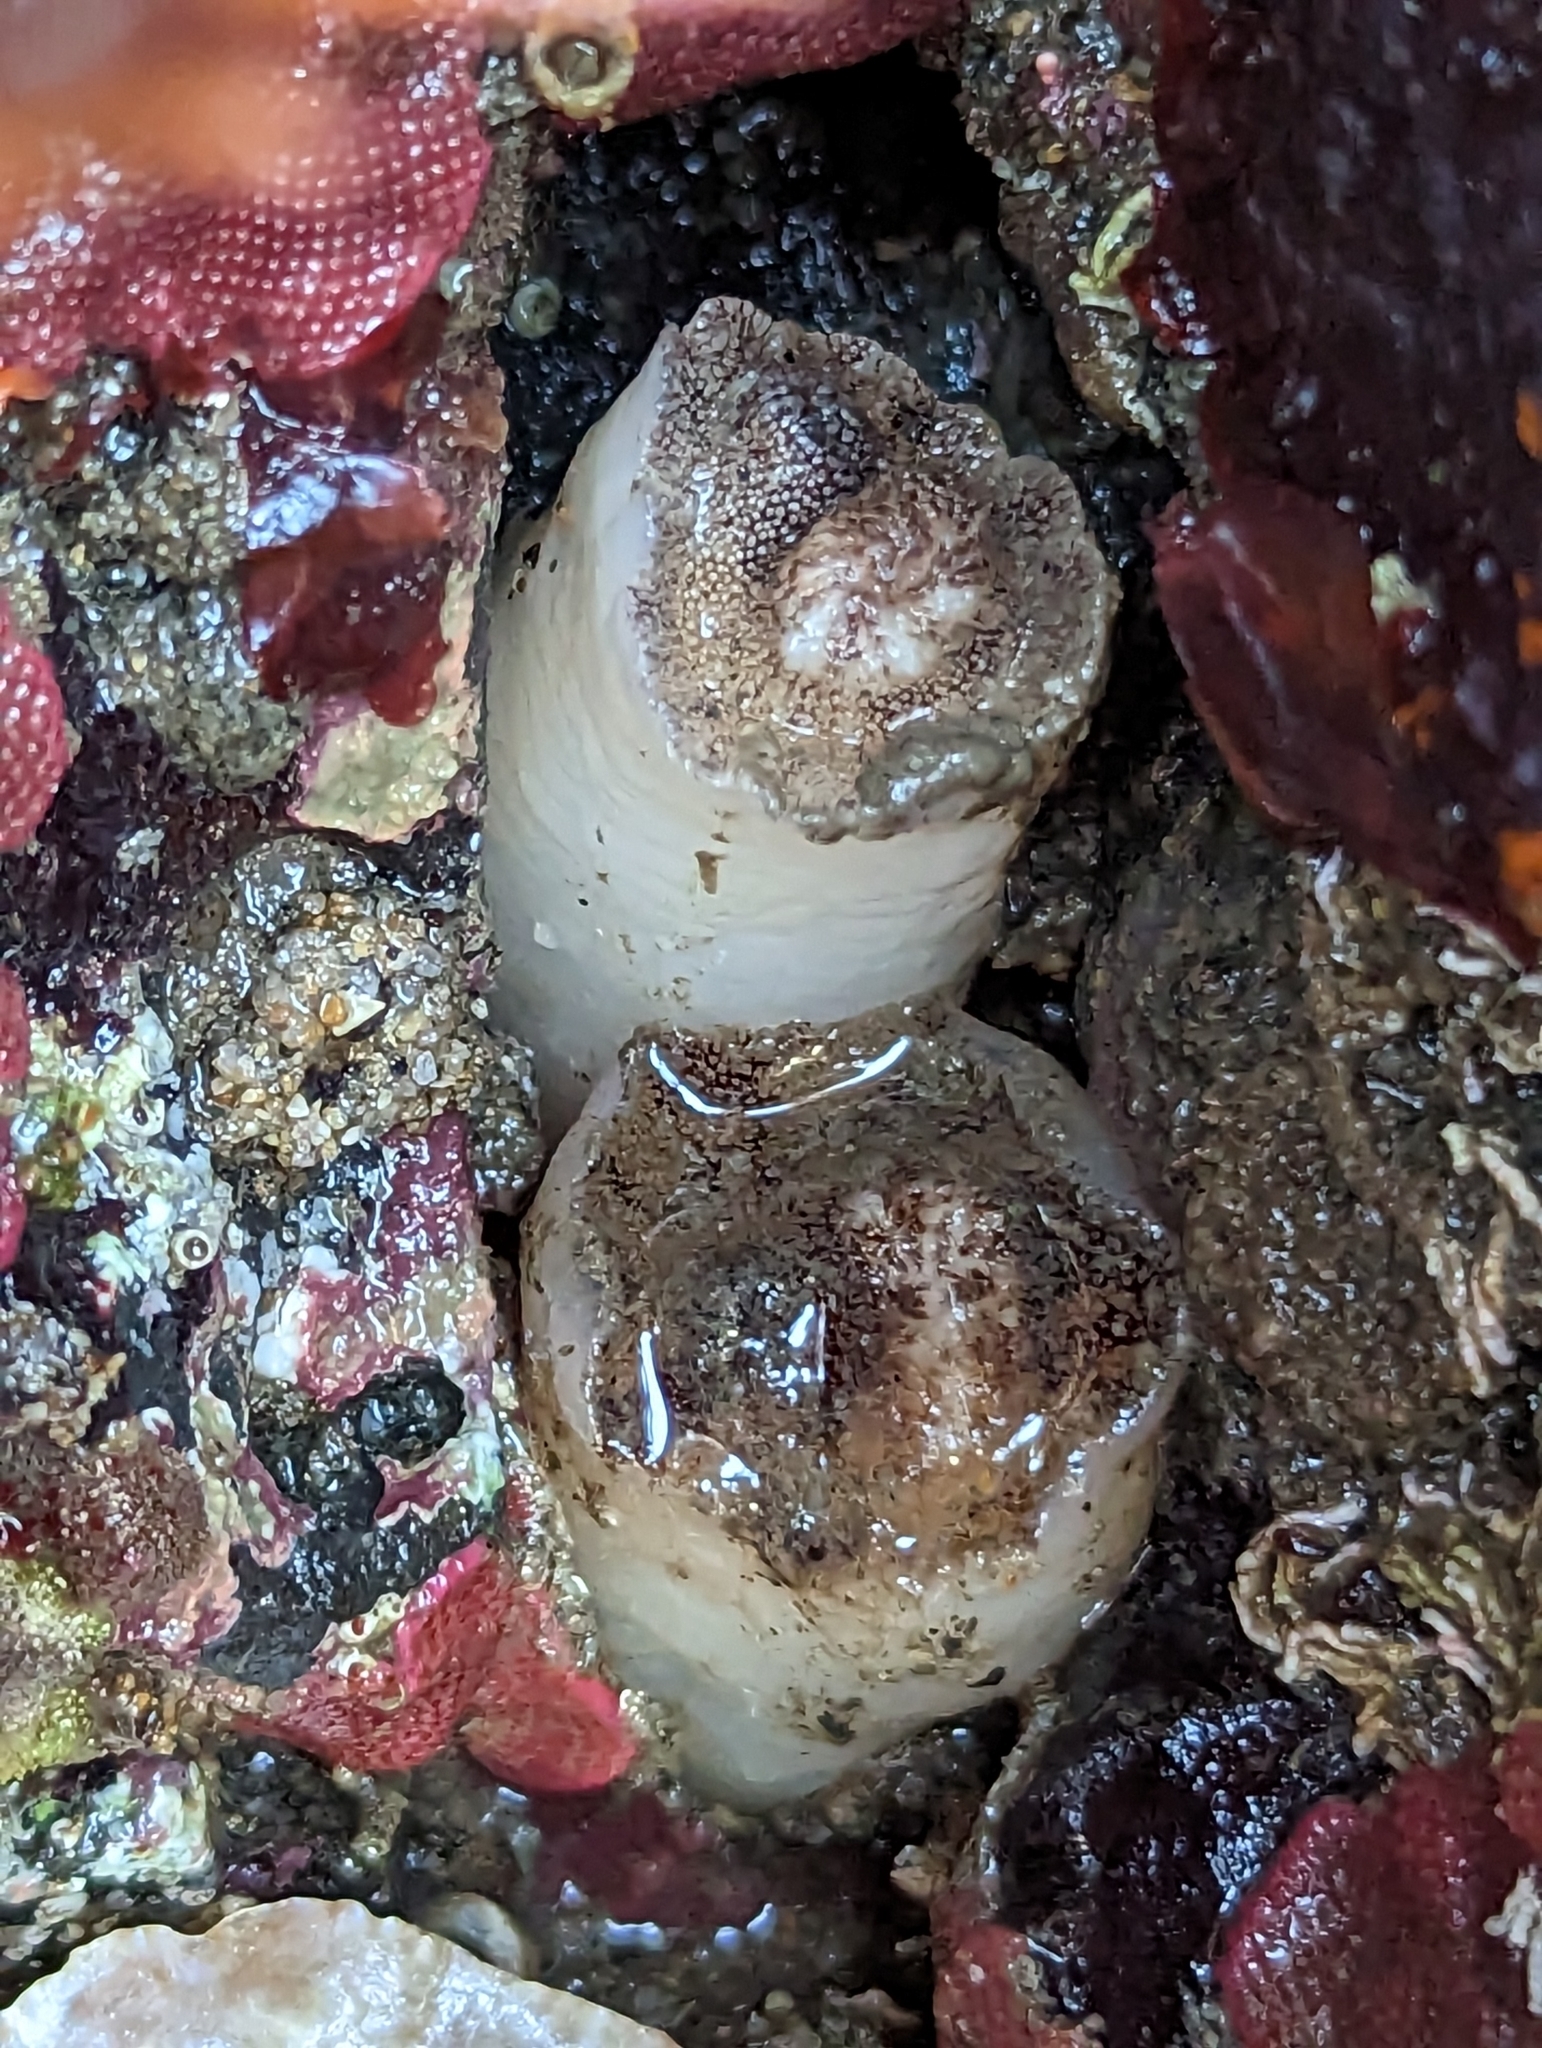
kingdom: Animalia
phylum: Mollusca
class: Bivalvia
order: Myida
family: Pholadidae
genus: Parapholas
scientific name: Parapholas californica
